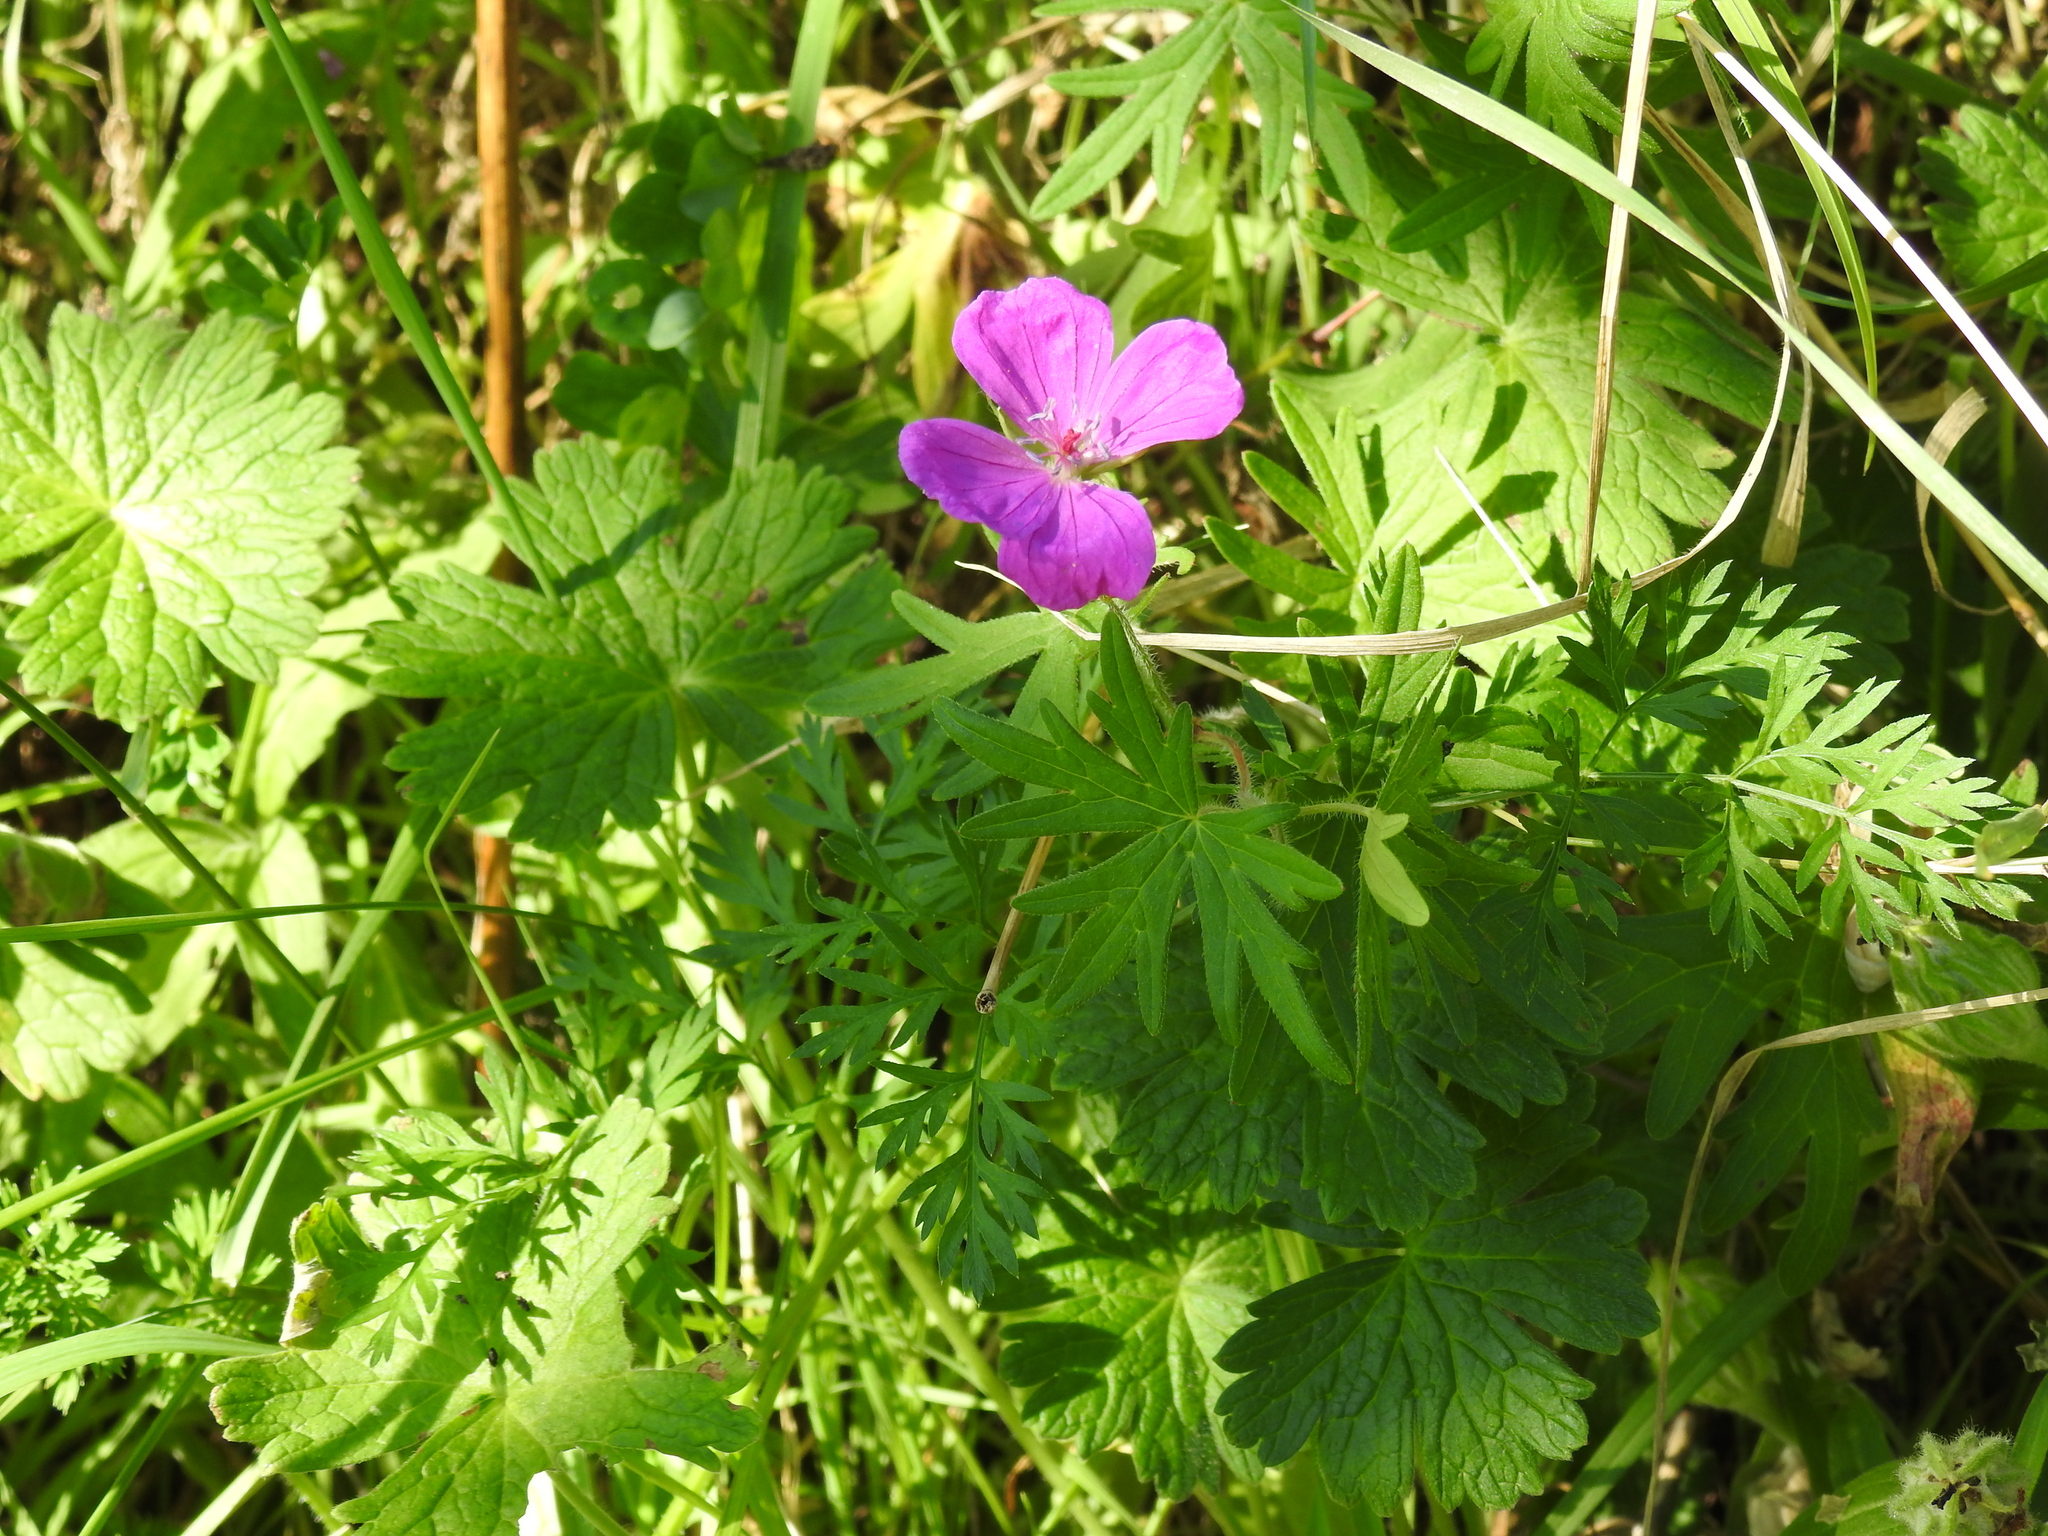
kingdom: Plantae
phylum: Tracheophyta
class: Magnoliopsida
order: Geraniales
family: Geraniaceae
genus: Geranium
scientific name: Geranium sanguineum
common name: Bloody crane's-bill
